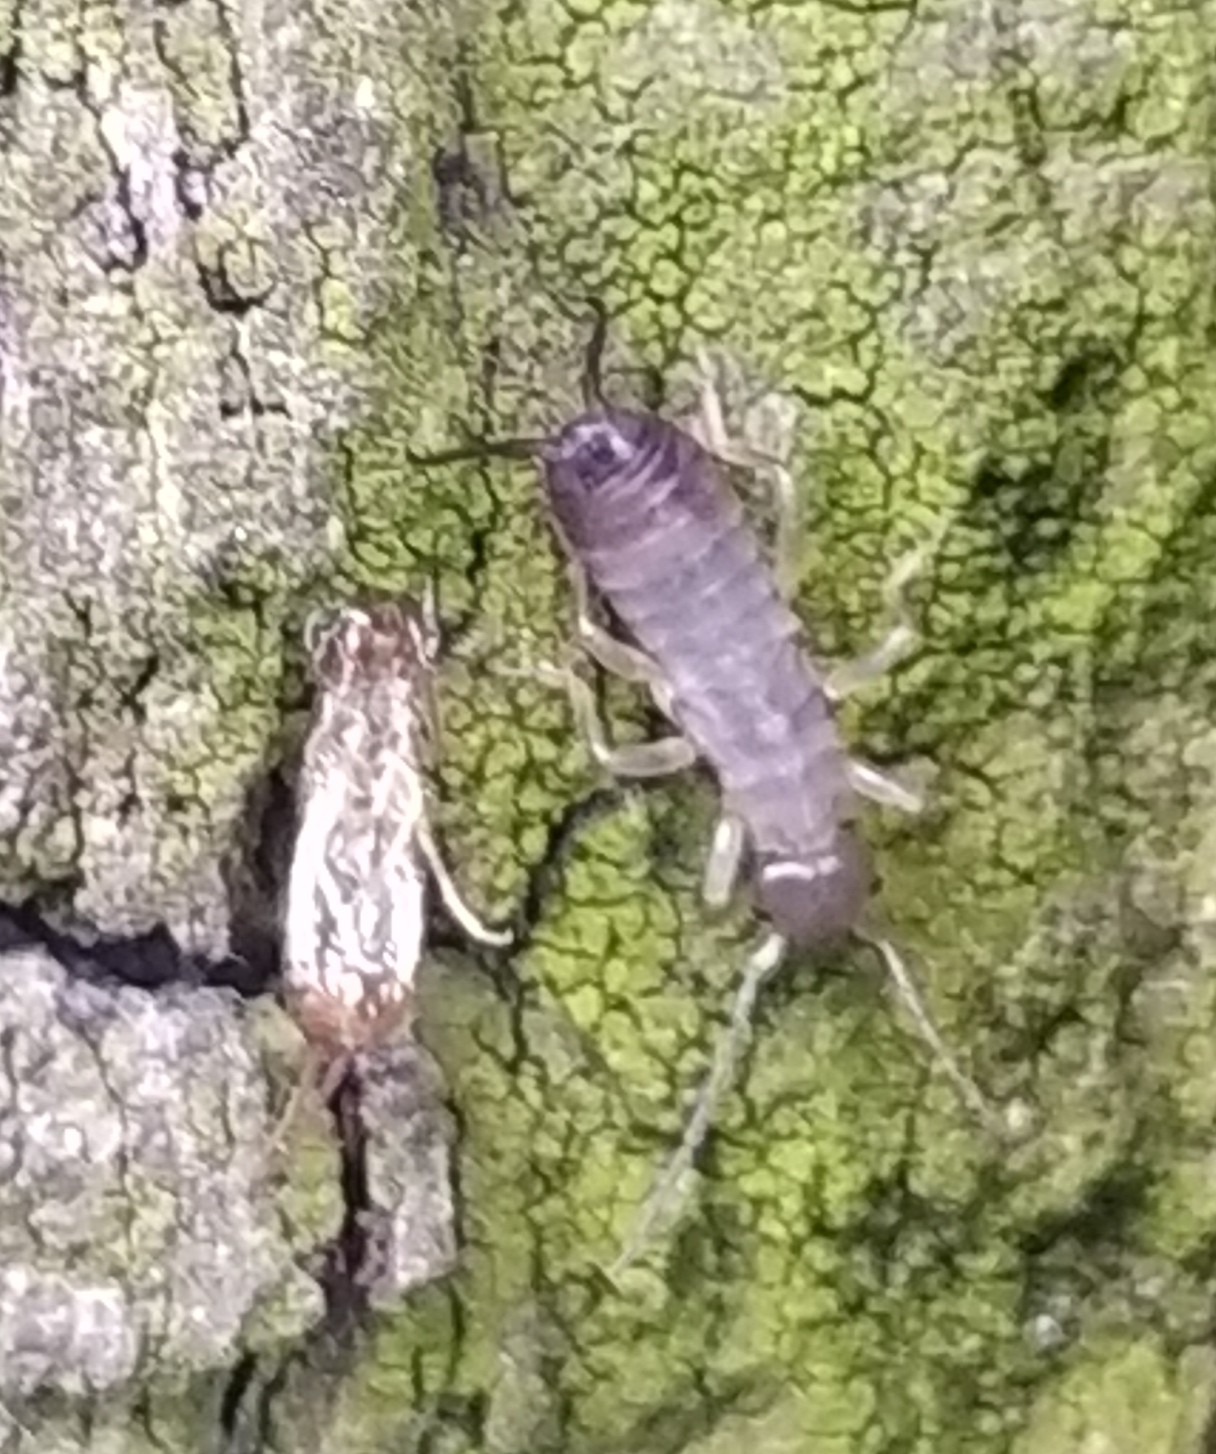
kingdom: Animalia
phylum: Arthropoda
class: Insecta
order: Dermaptera
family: Forficulidae
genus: Forficula
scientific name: Forficula
